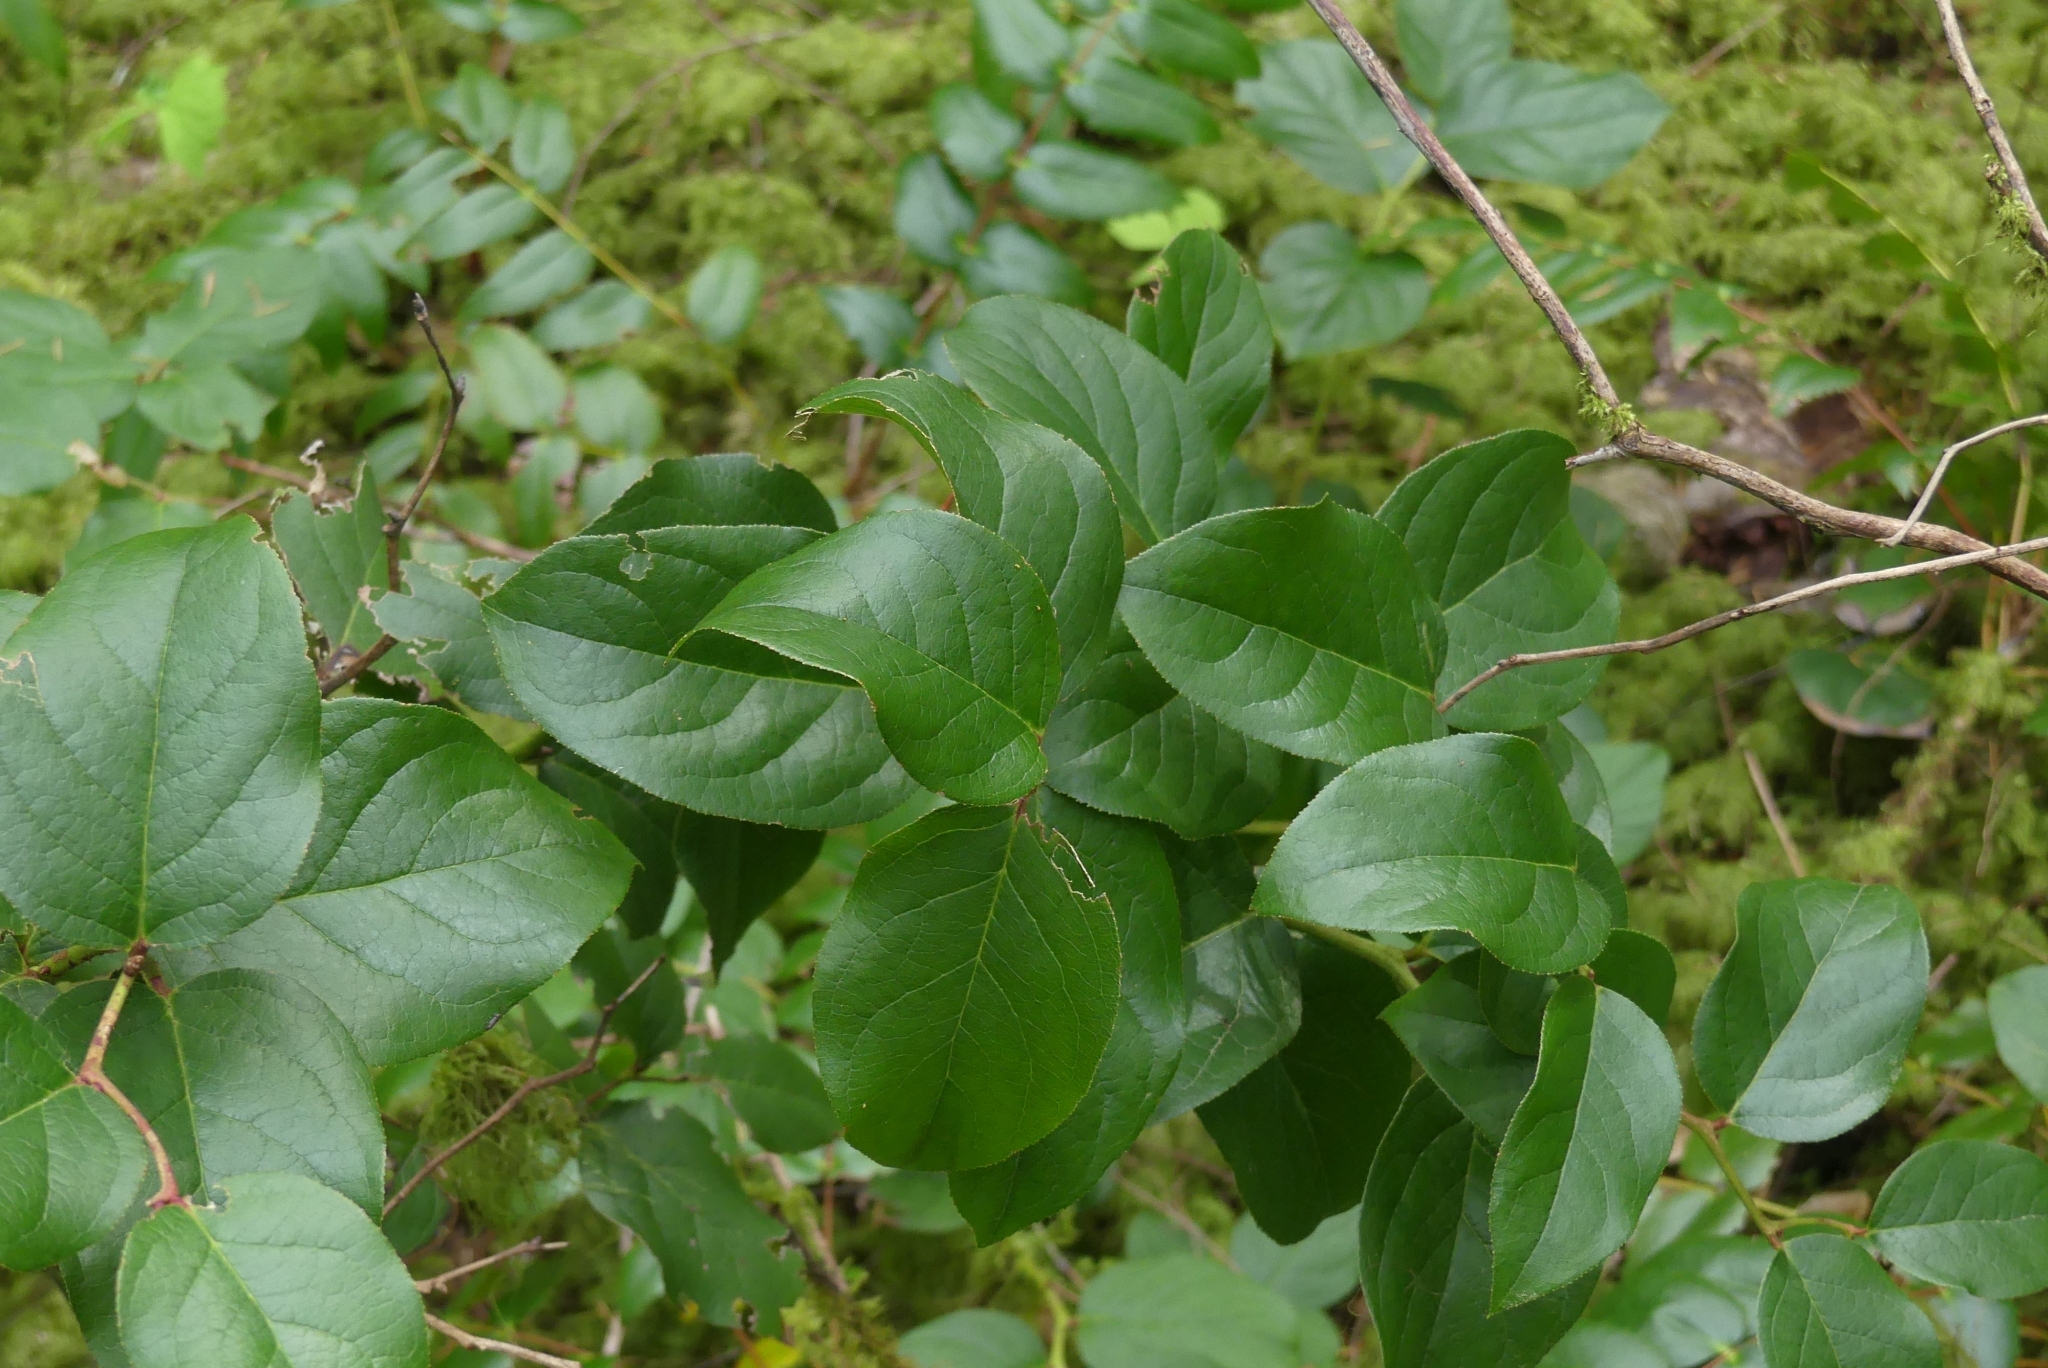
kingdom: Plantae
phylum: Tracheophyta
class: Magnoliopsida
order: Ericales
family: Ericaceae
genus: Gaultheria
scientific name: Gaultheria shallon
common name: Shallon
